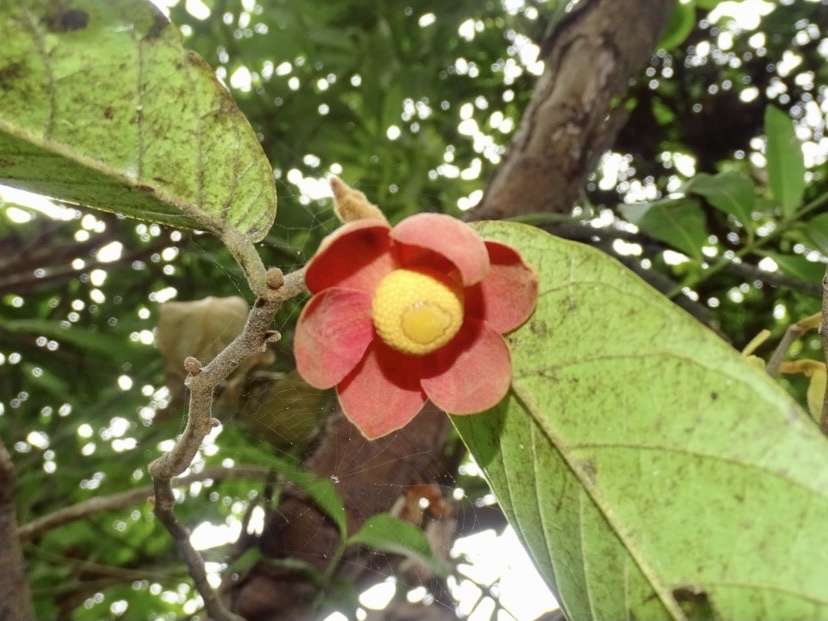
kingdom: Plantae
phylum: Tracheophyta
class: Magnoliopsida
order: Magnoliales
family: Annonaceae
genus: Uvaria
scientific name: Uvaria littoralis
